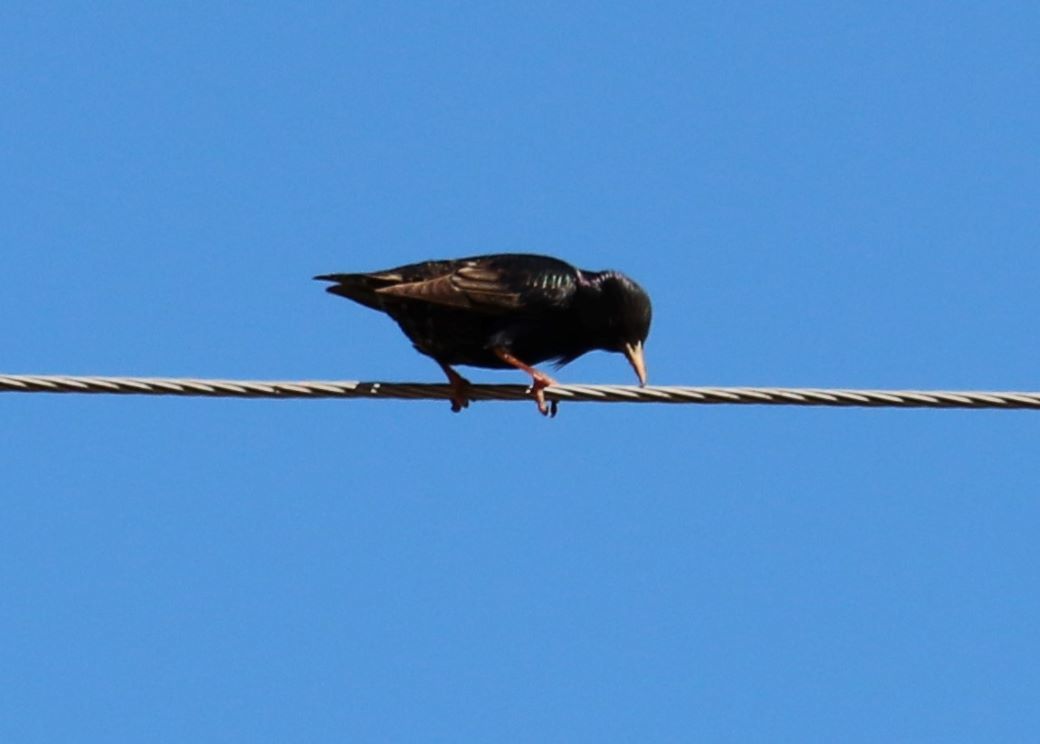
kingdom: Animalia
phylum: Chordata
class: Aves
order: Passeriformes
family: Sturnidae
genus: Sturnus
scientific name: Sturnus vulgaris
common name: Common starling
